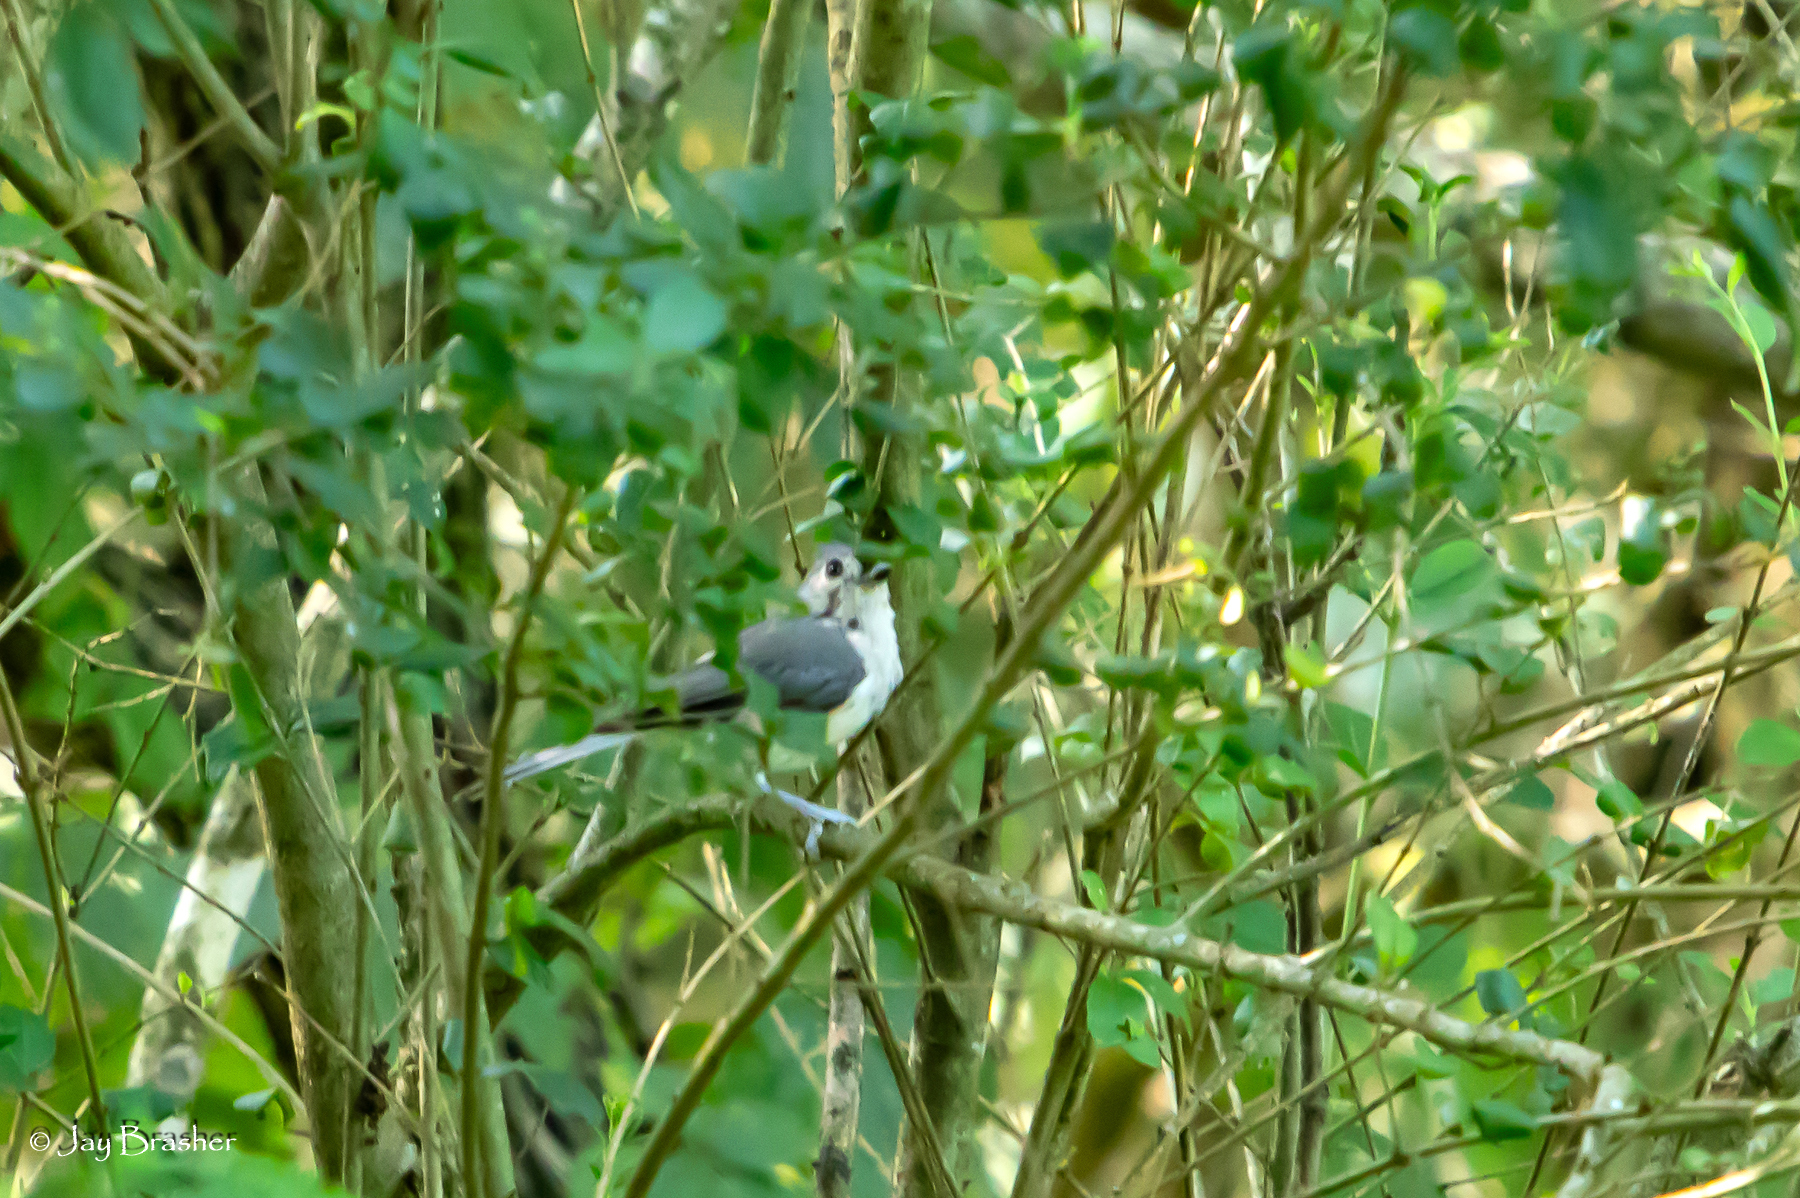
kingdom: Animalia
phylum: Chordata
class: Aves
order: Passeriformes
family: Paridae
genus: Baeolophus
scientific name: Baeolophus bicolor
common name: Tufted titmouse
